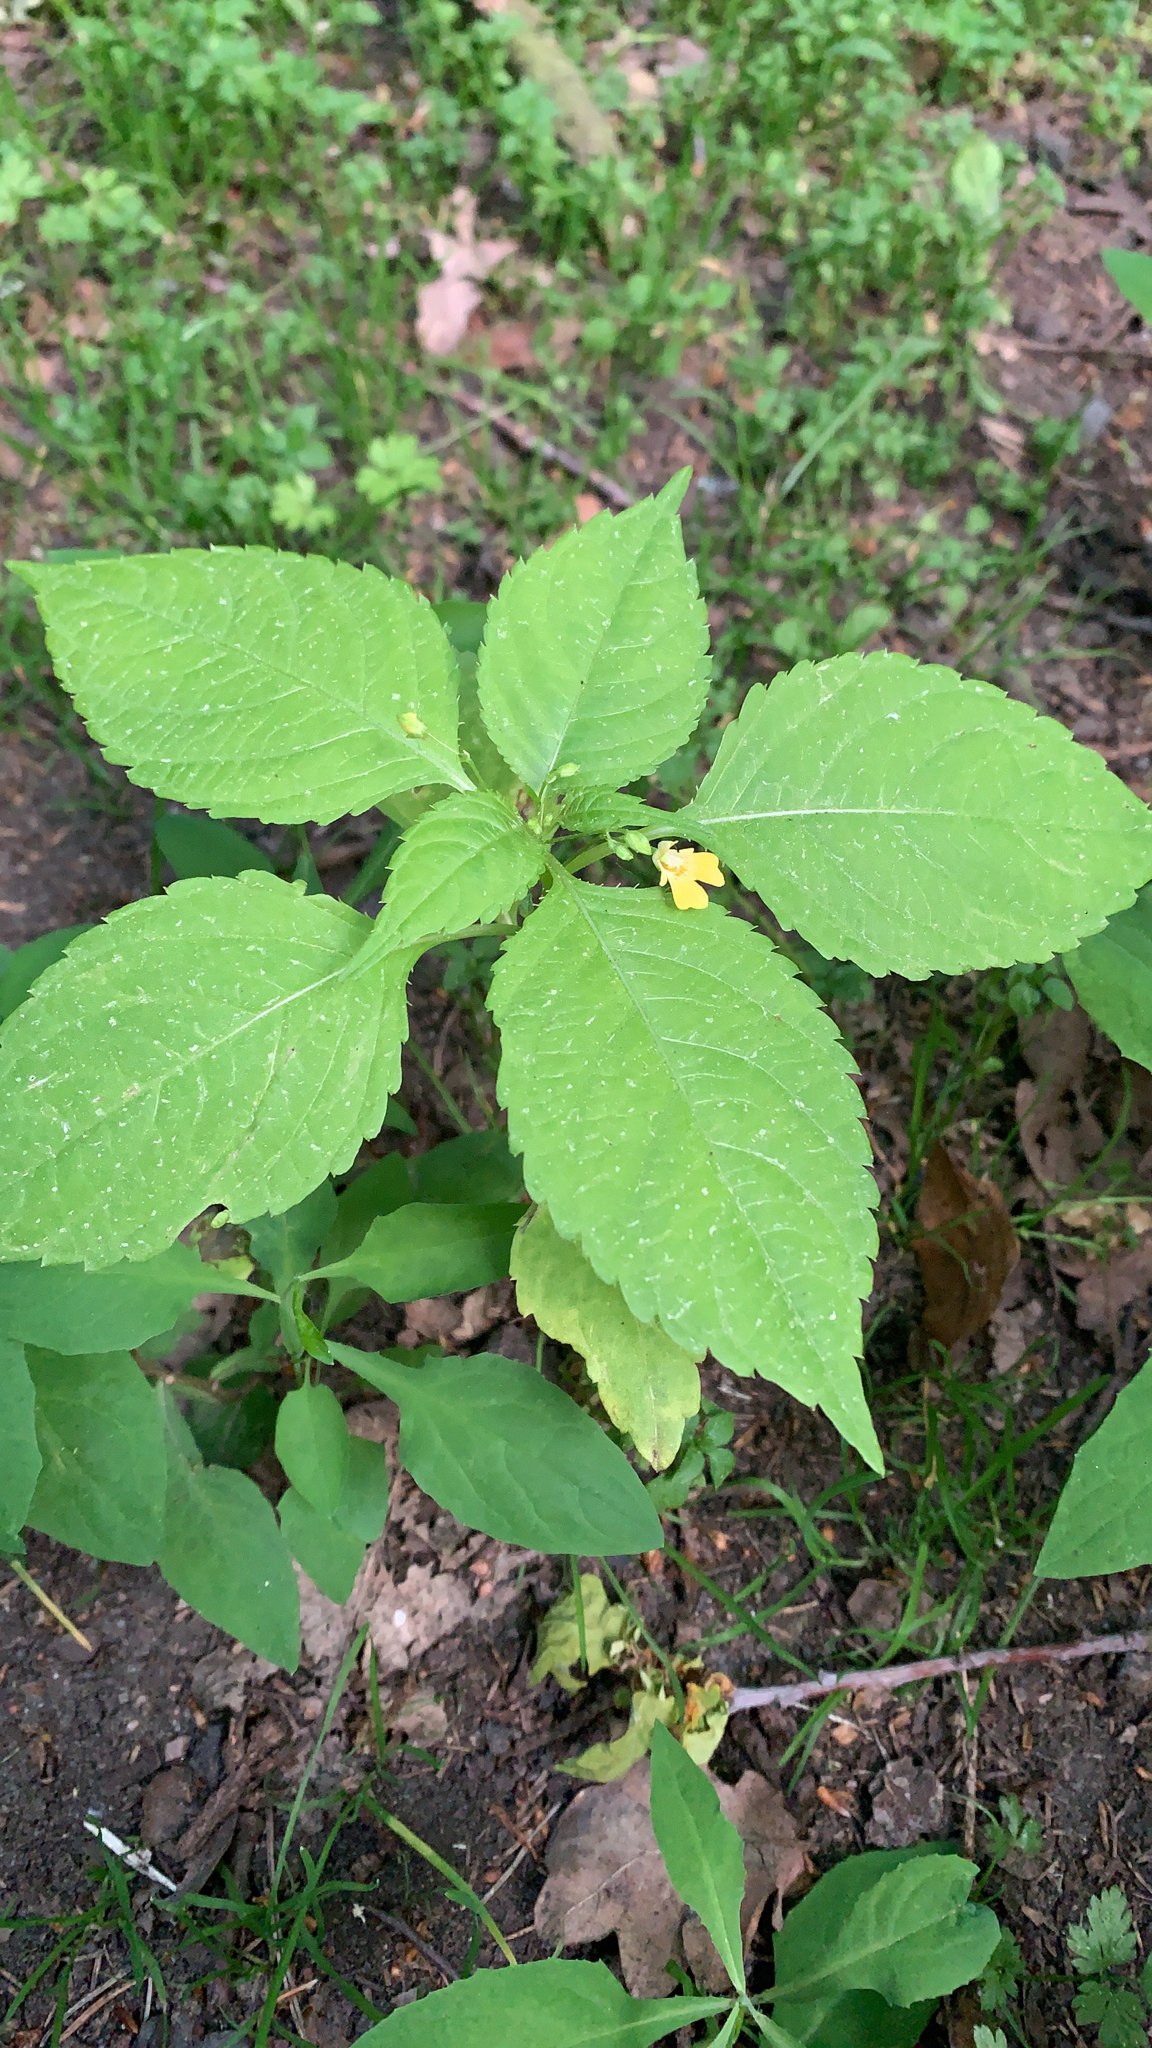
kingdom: Plantae
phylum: Tracheophyta
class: Magnoliopsida
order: Ericales
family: Balsaminaceae
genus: Impatiens
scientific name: Impatiens parviflora
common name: Small balsam
